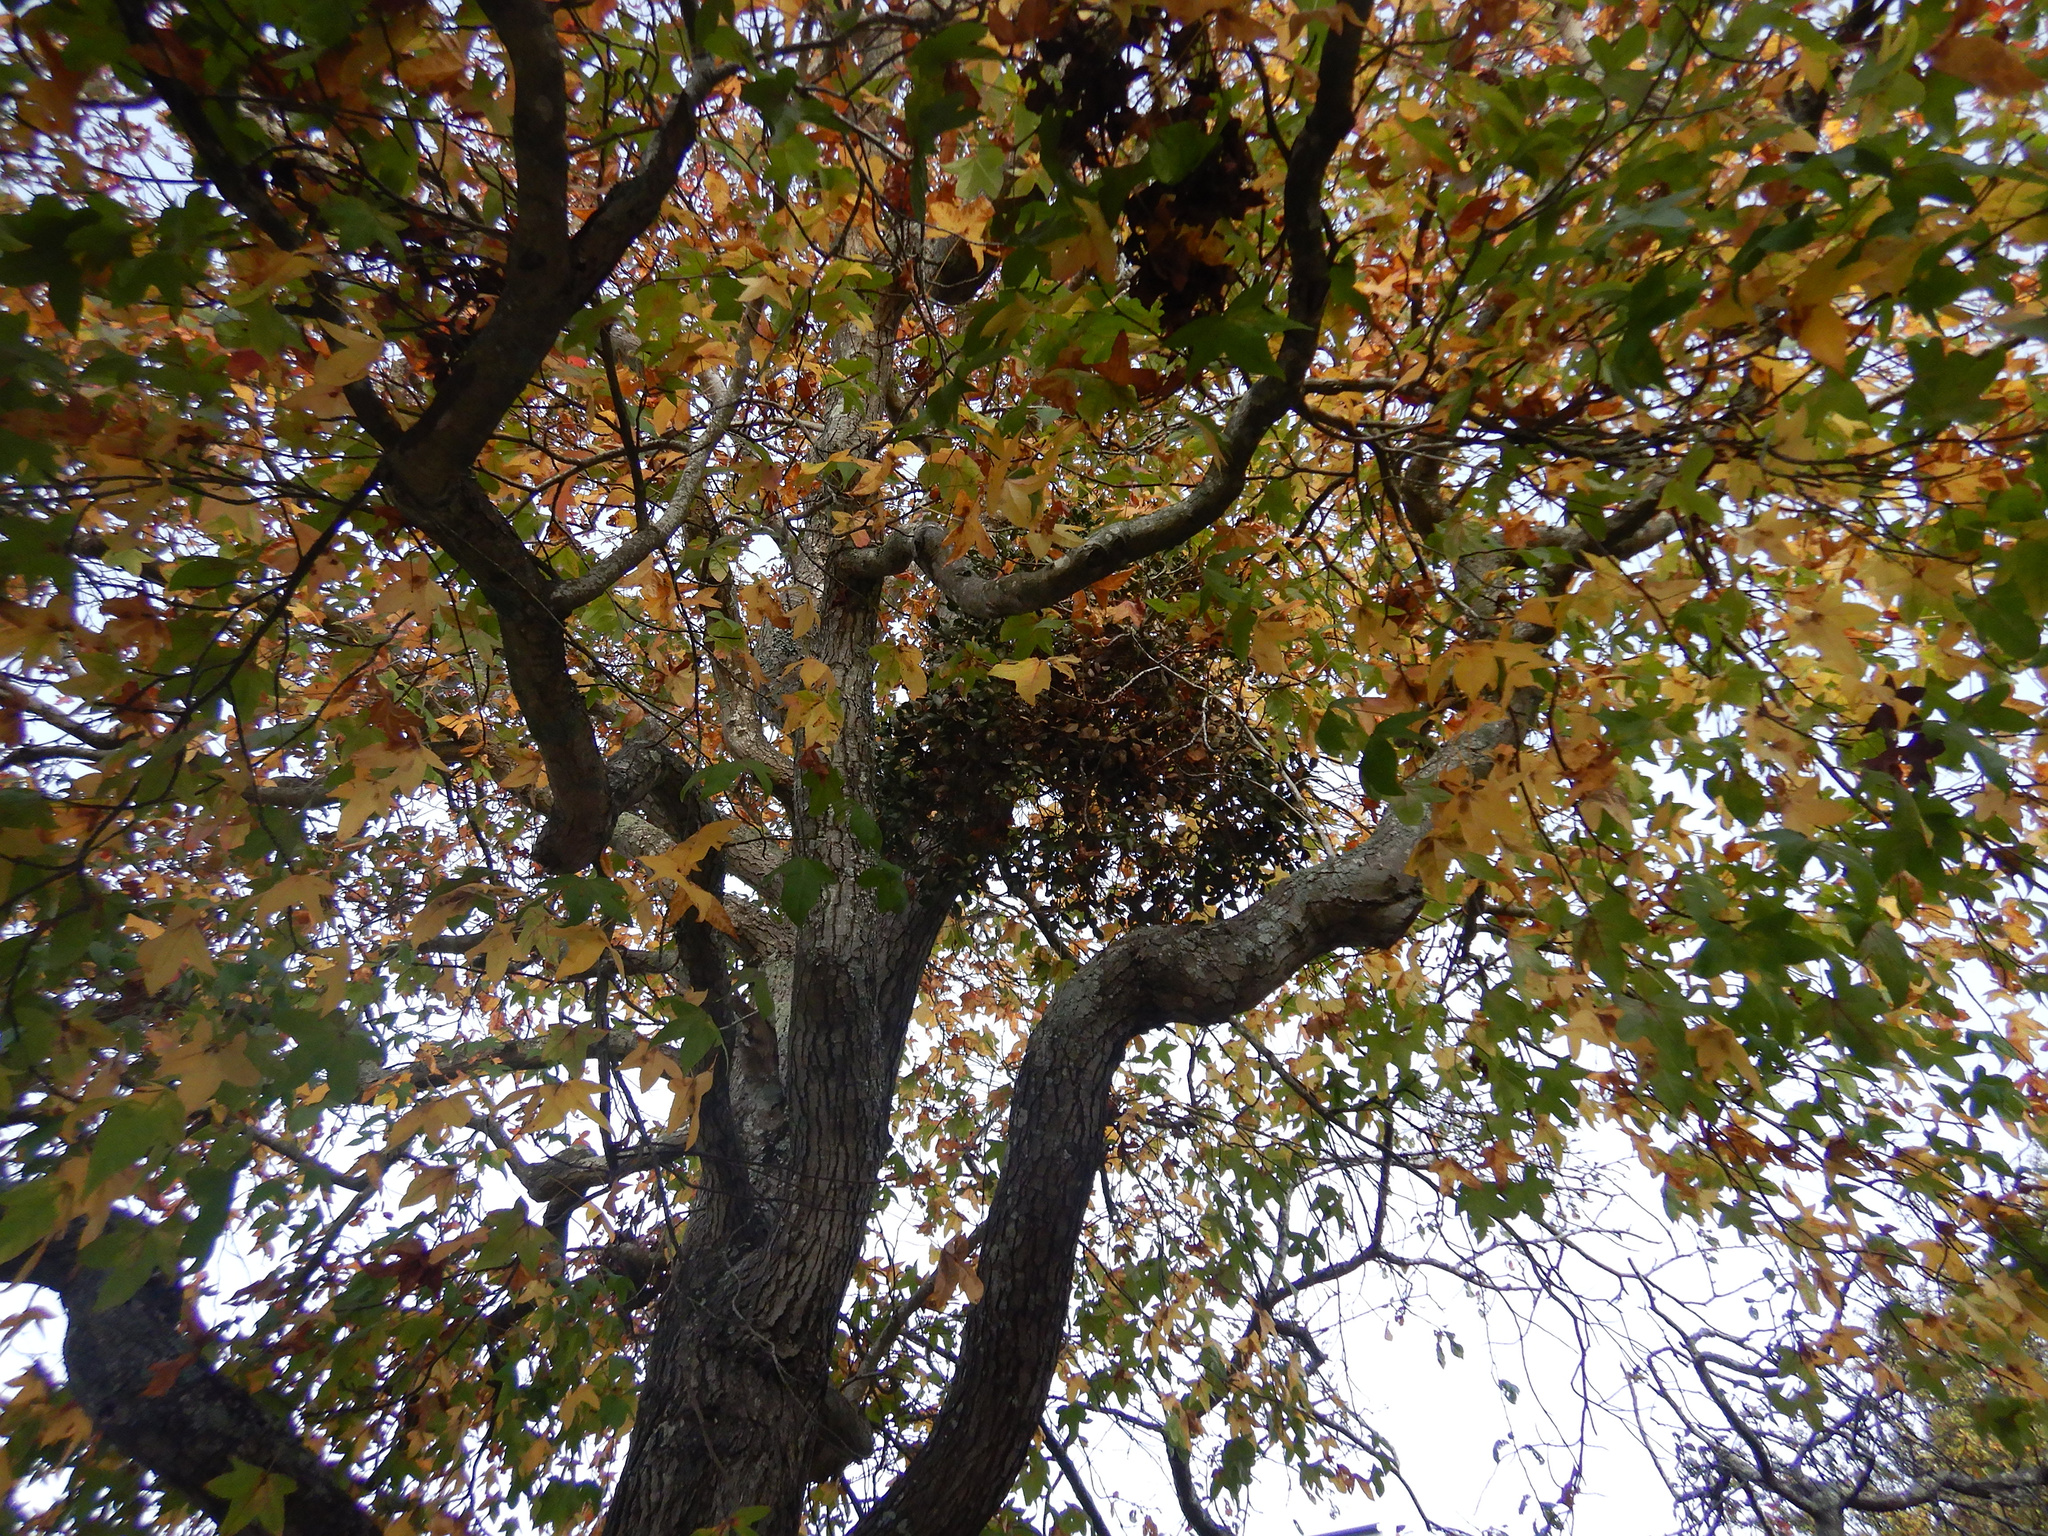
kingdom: Plantae
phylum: Tracheophyta
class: Magnoliopsida
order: Santalales
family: Loranthaceae
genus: Ileostylus
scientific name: Ileostylus micranthus
